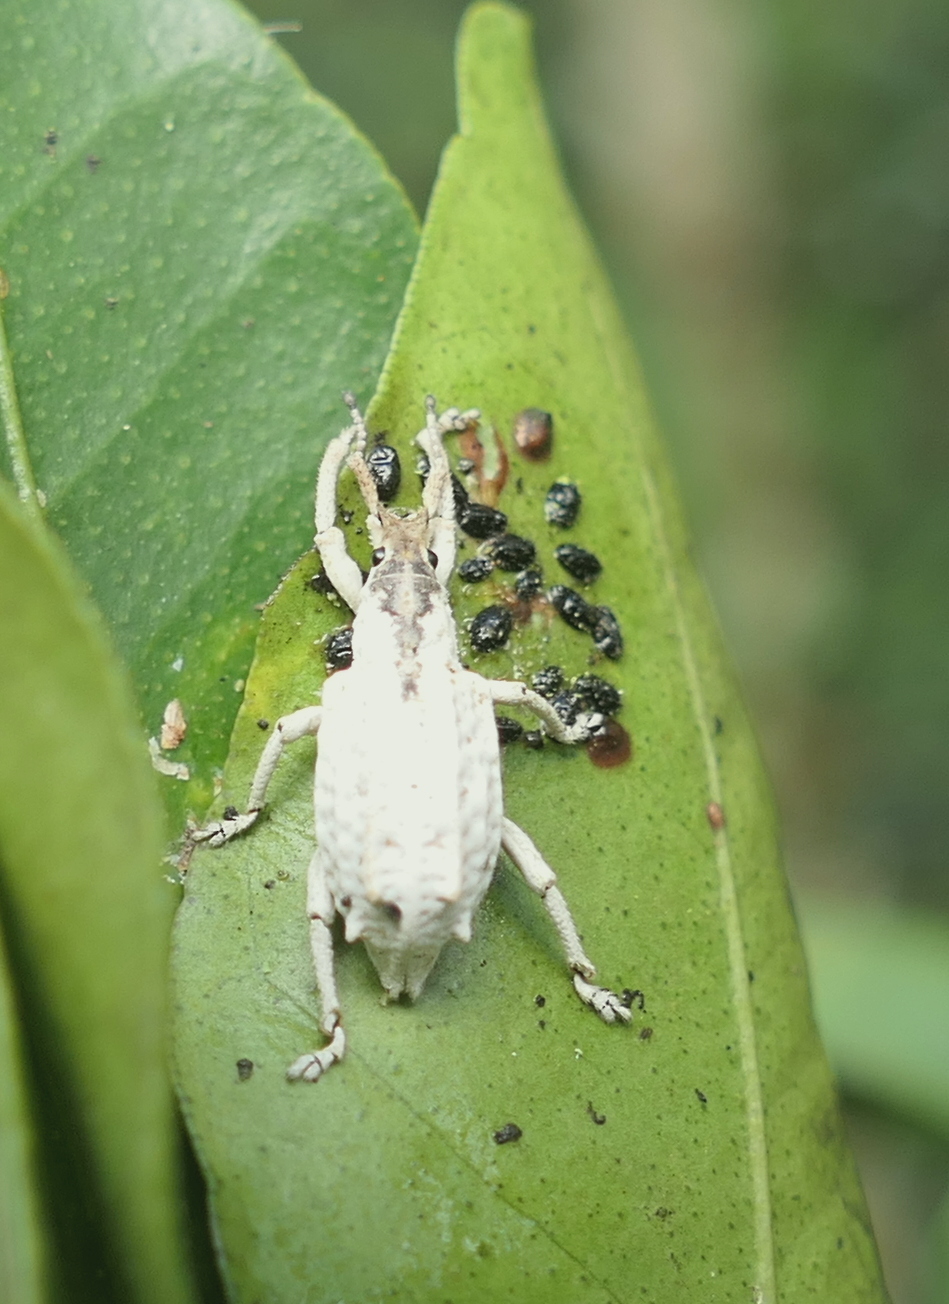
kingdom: Animalia
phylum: Arthropoda
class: Insecta
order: Coleoptera
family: Curculionidae
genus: Compsus
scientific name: Compsus niveus
